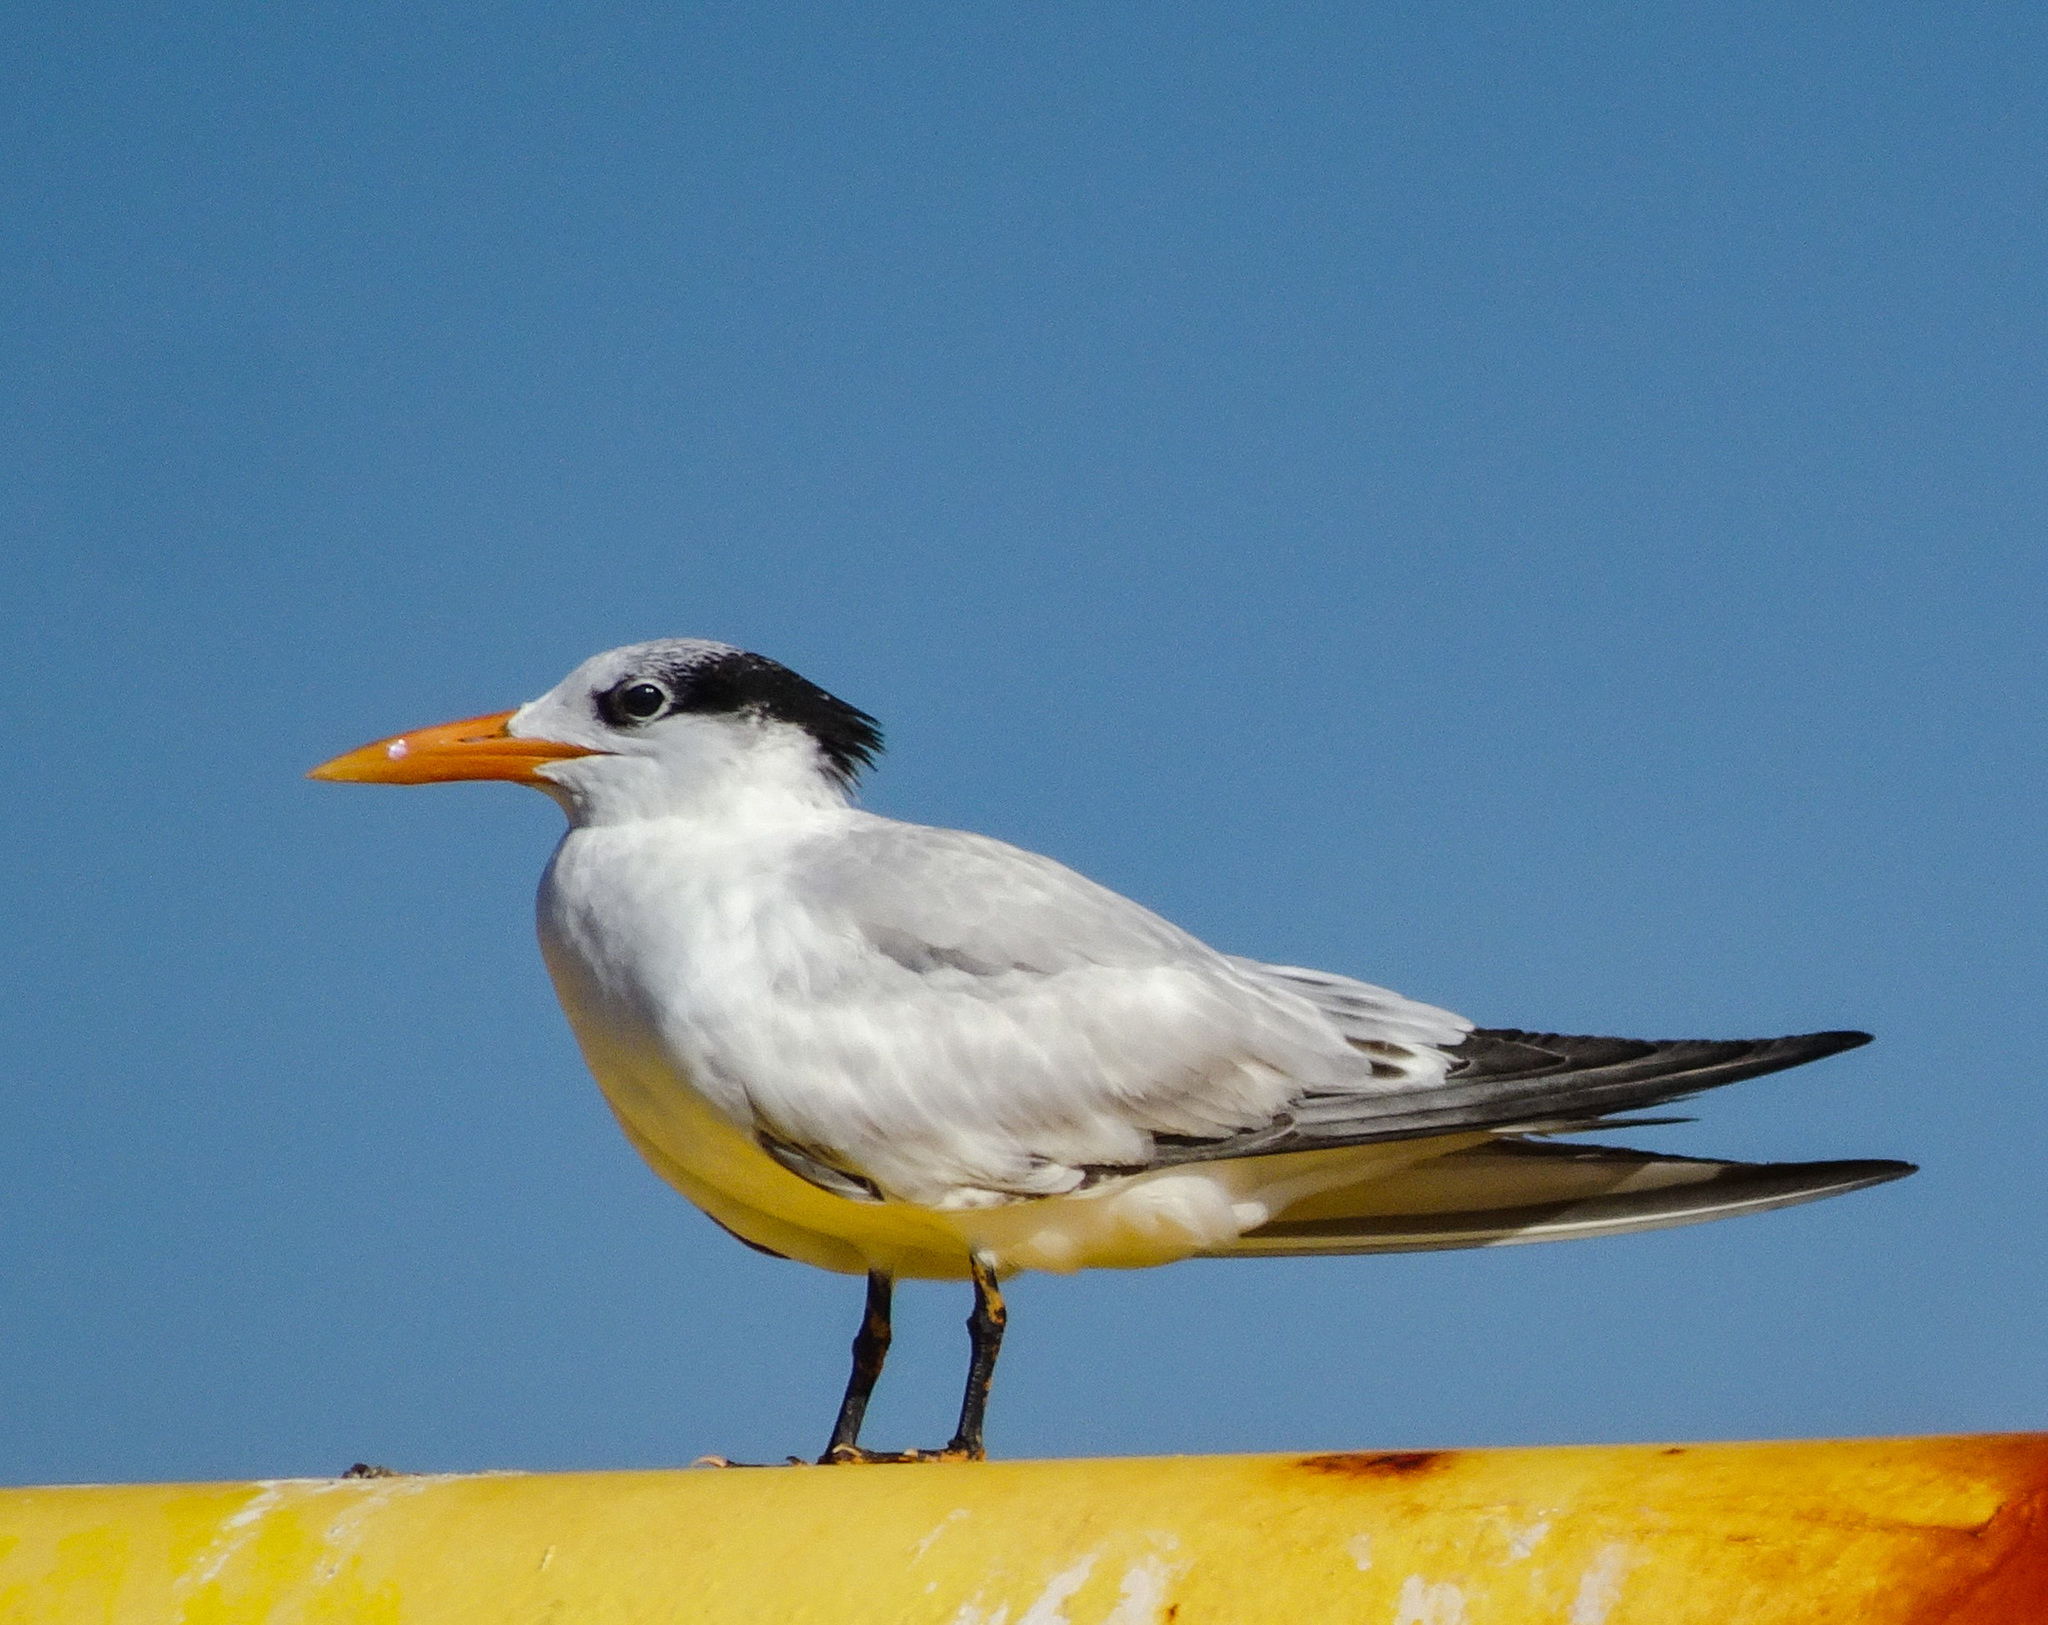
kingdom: Animalia
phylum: Chordata
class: Aves
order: Charadriiformes
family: Laridae
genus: Thalasseus
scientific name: Thalasseus maximus
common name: Royal tern
